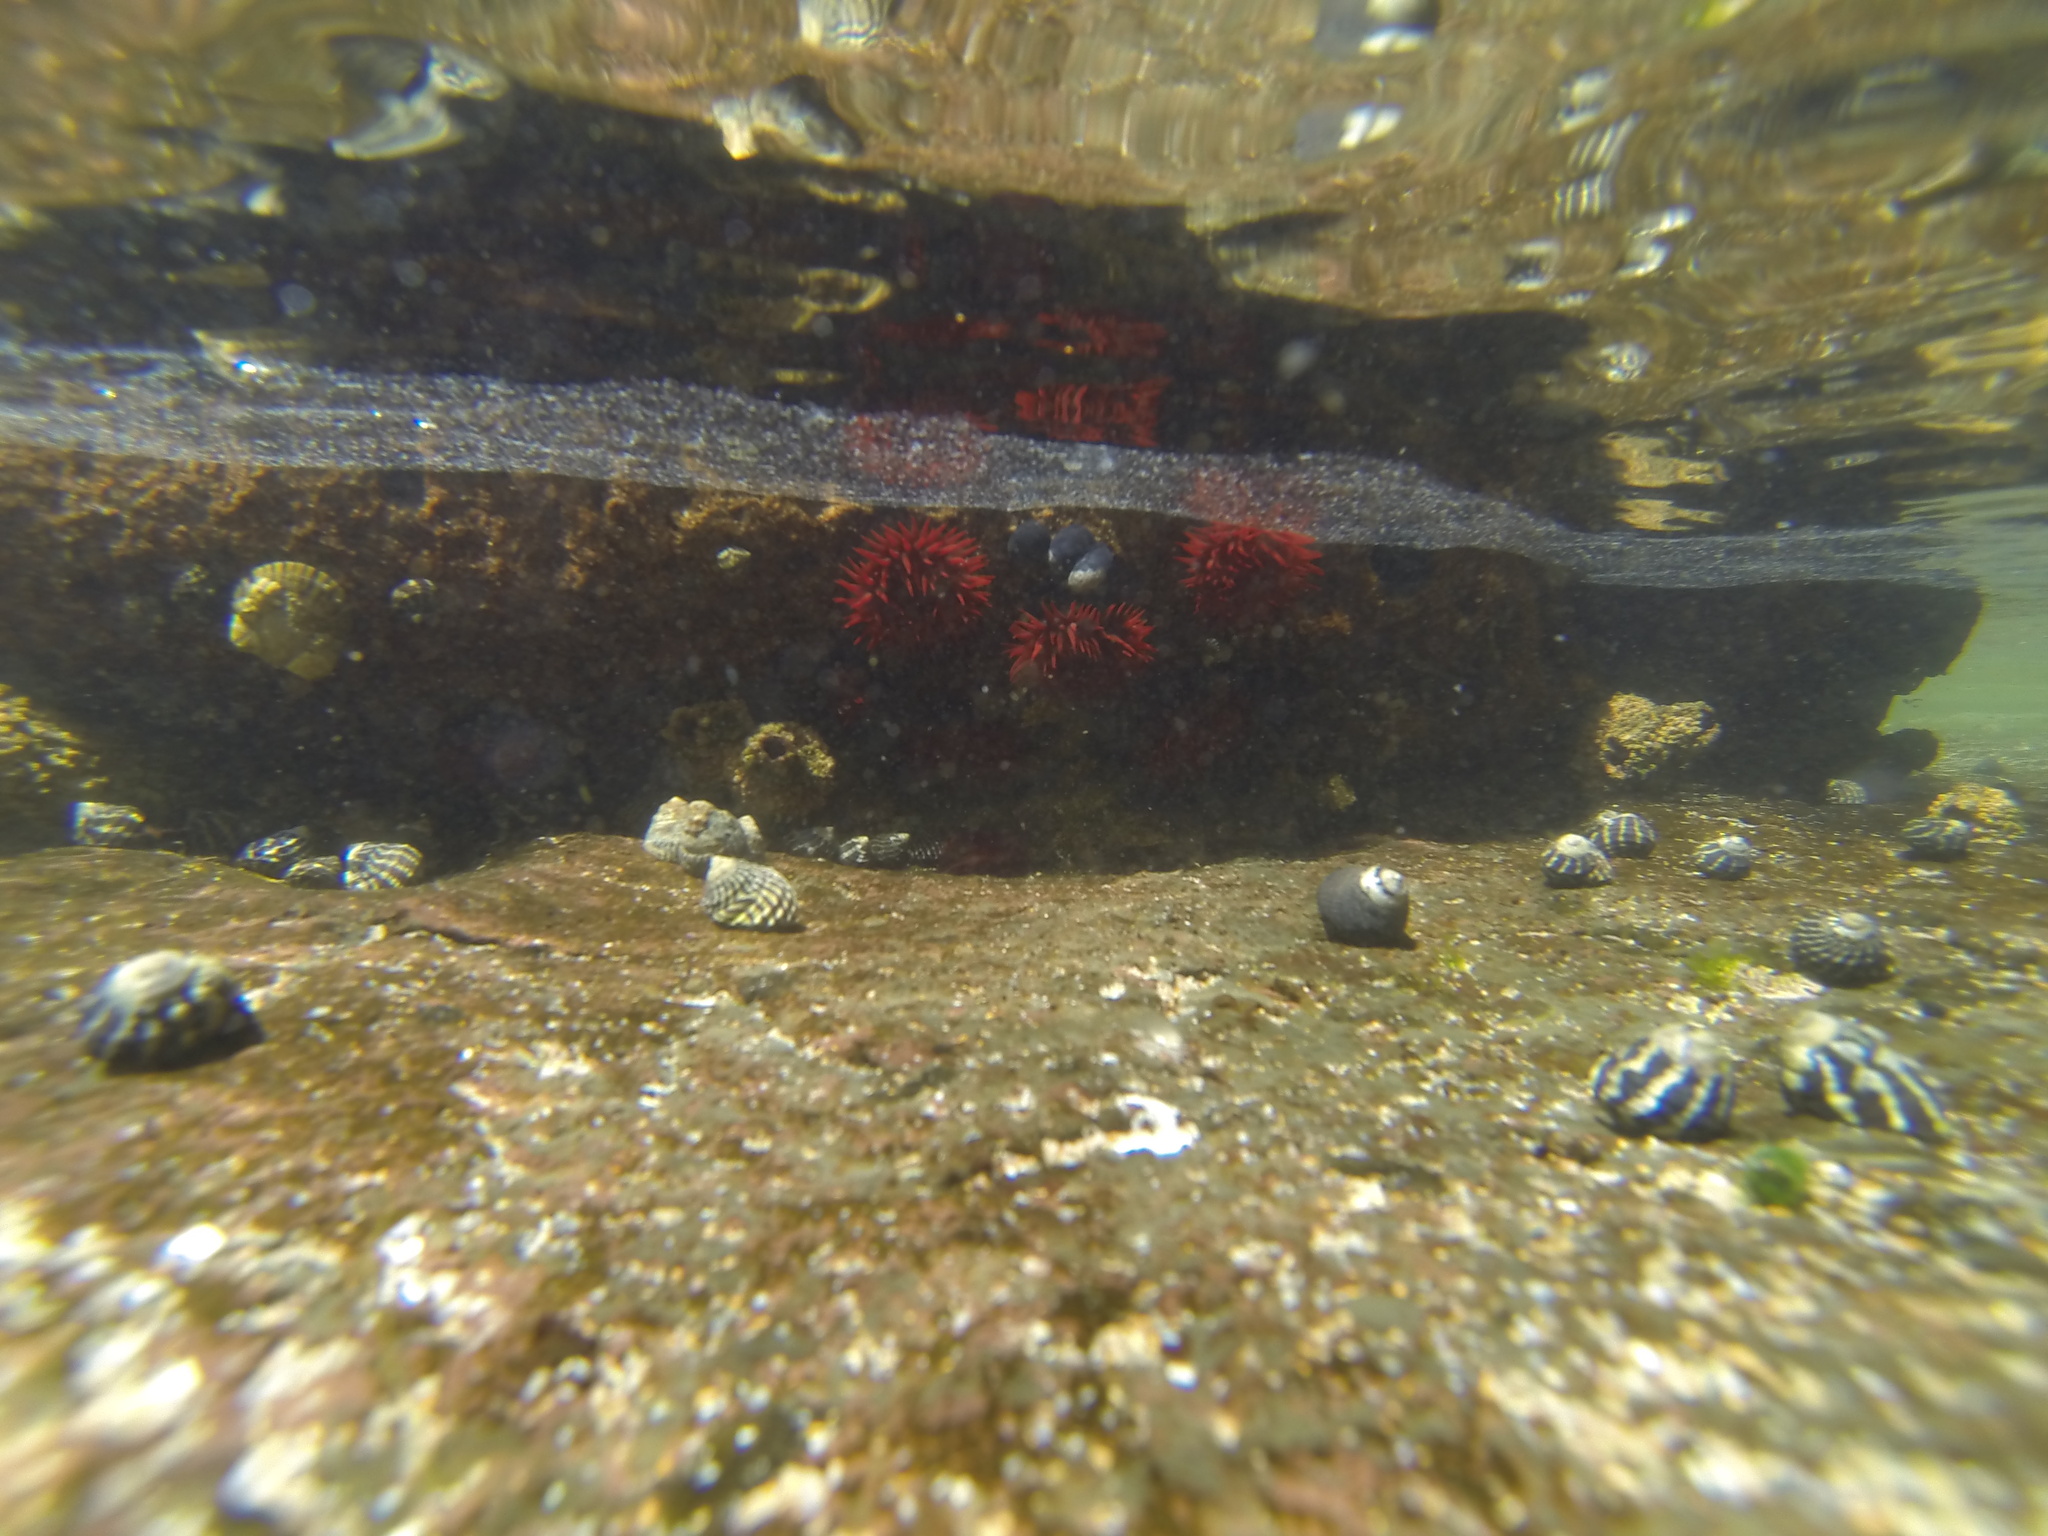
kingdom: Animalia
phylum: Chordata
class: Ascidiacea
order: Stolidobranchia
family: Pyuridae
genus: Pyura
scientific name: Pyura praeputialis
